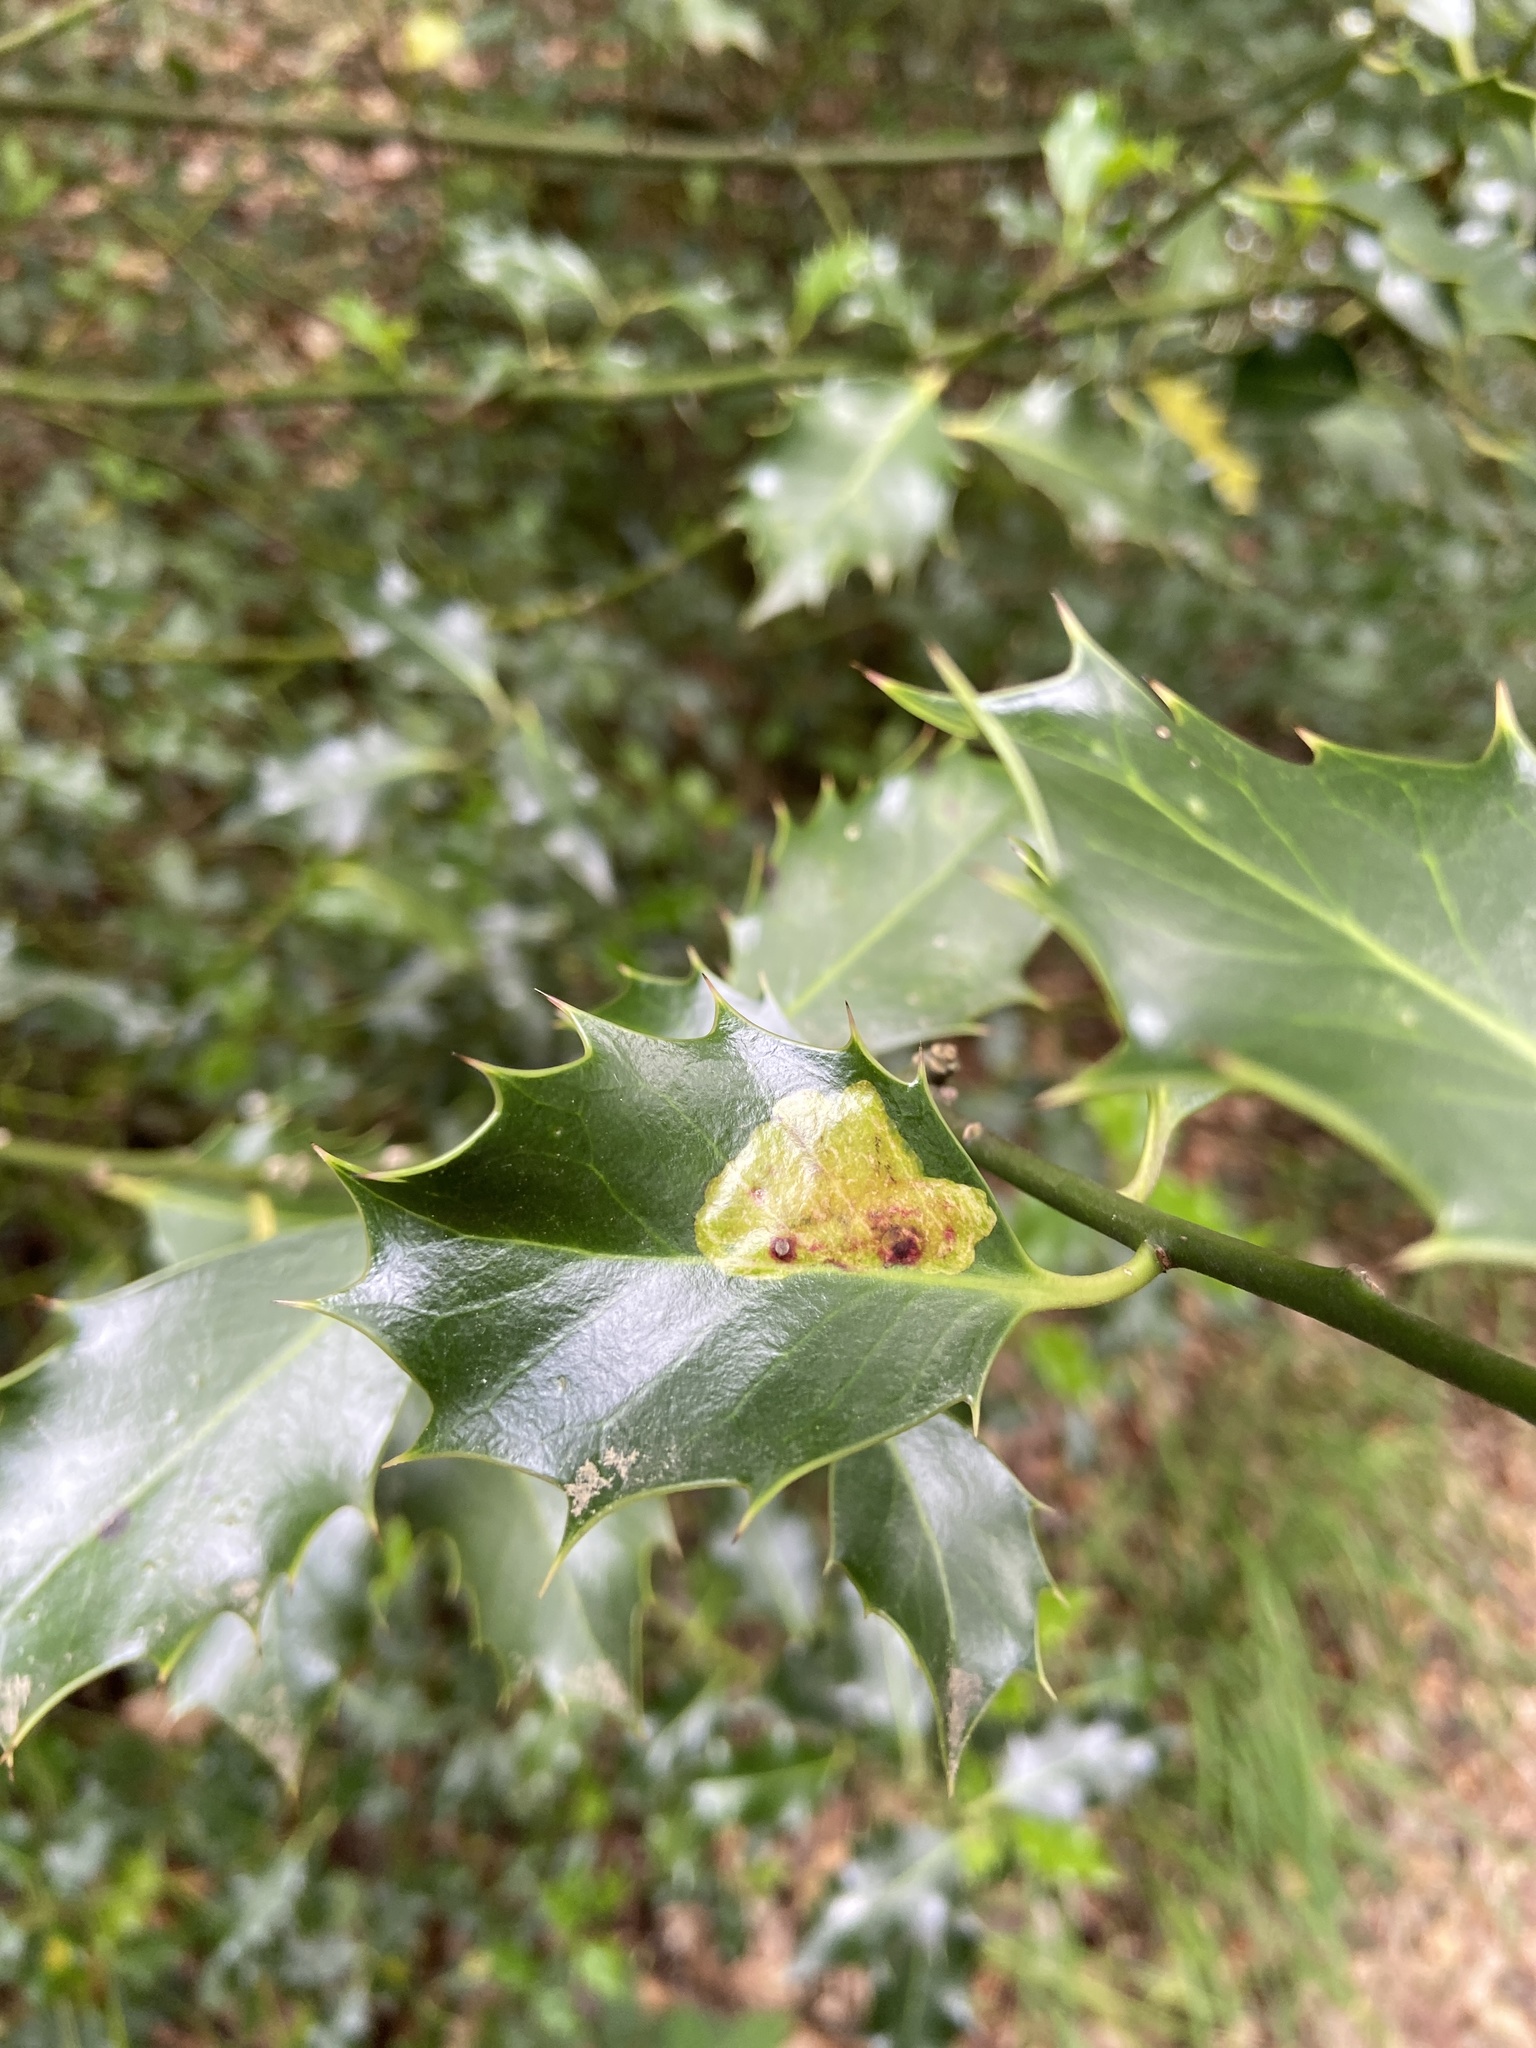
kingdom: Animalia
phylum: Arthropoda
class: Insecta
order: Diptera
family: Agromyzidae
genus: Phytomyza
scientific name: Phytomyza ilicis
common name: Holly leafminer
